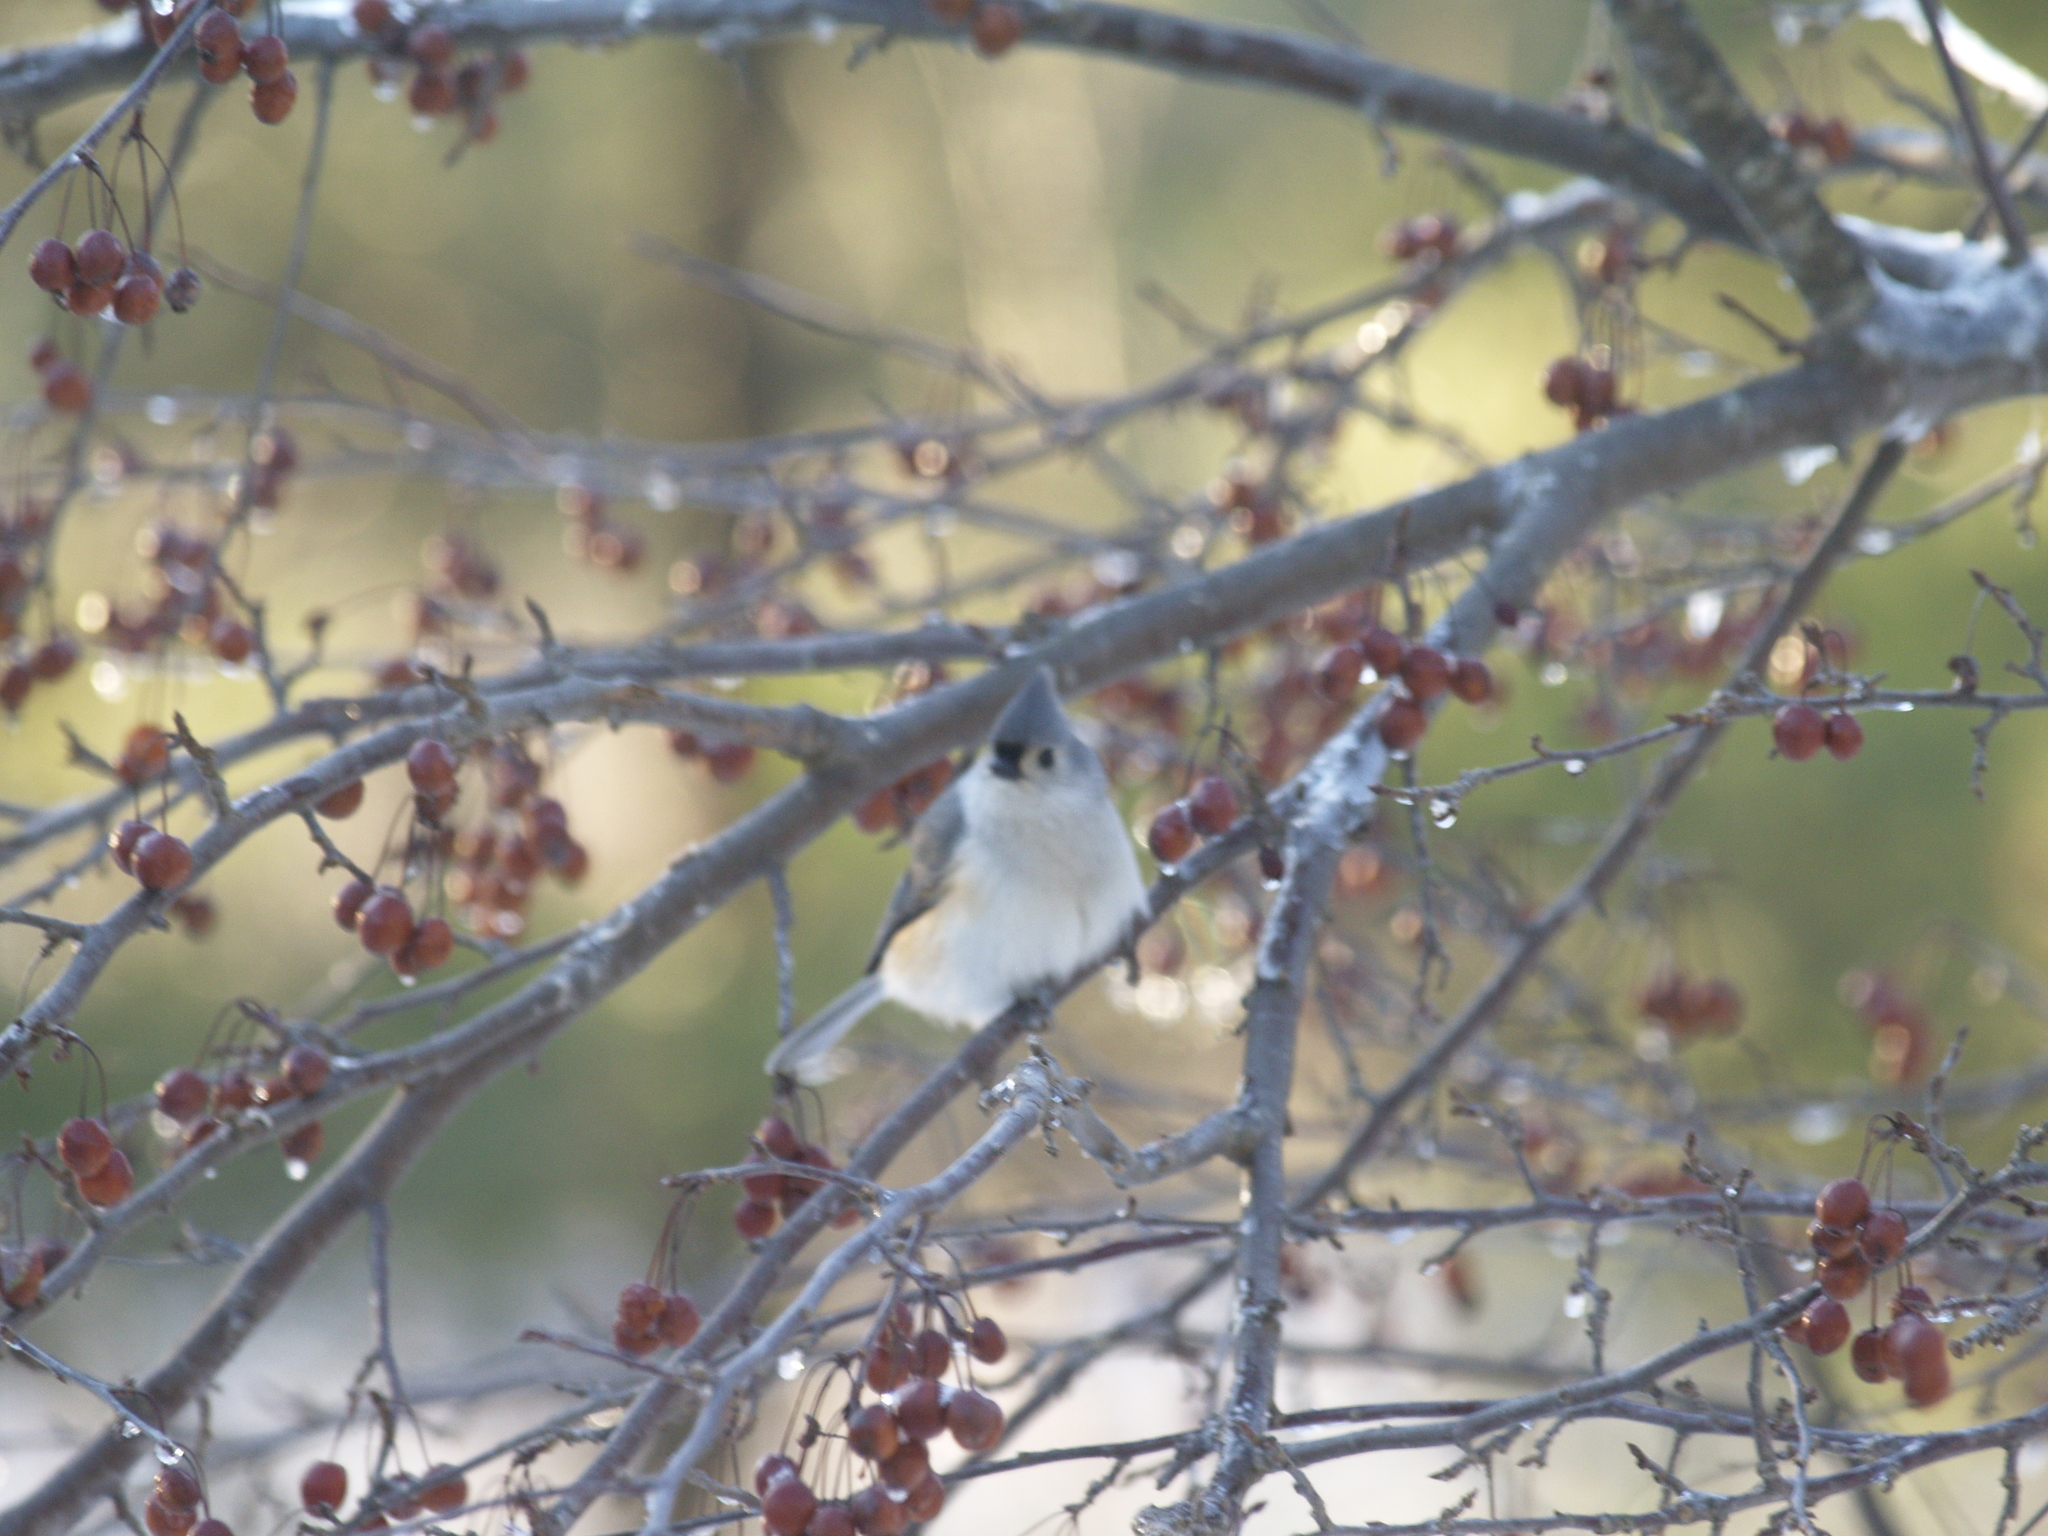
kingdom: Animalia
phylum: Chordata
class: Aves
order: Passeriformes
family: Paridae
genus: Baeolophus
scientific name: Baeolophus bicolor
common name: Tufted titmouse
